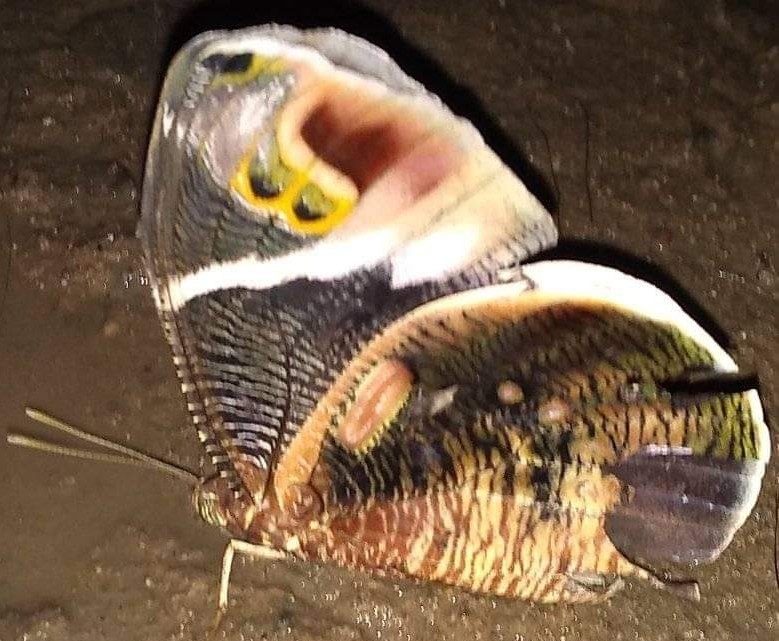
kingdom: Animalia
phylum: Arthropoda
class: Insecta
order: Lepidoptera
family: Nymphalidae
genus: Dynastor
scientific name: Dynastor macrosiris
